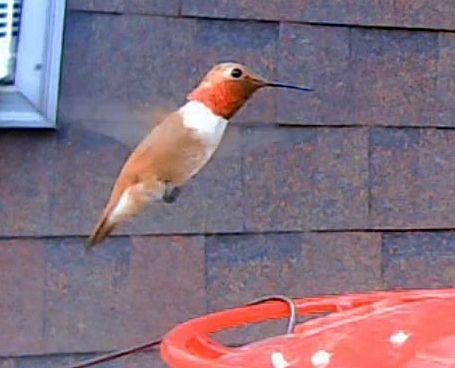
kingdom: Animalia
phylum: Chordata
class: Aves
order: Apodiformes
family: Trochilidae
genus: Selasphorus
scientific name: Selasphorus rufus
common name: Rufous hummingbird
